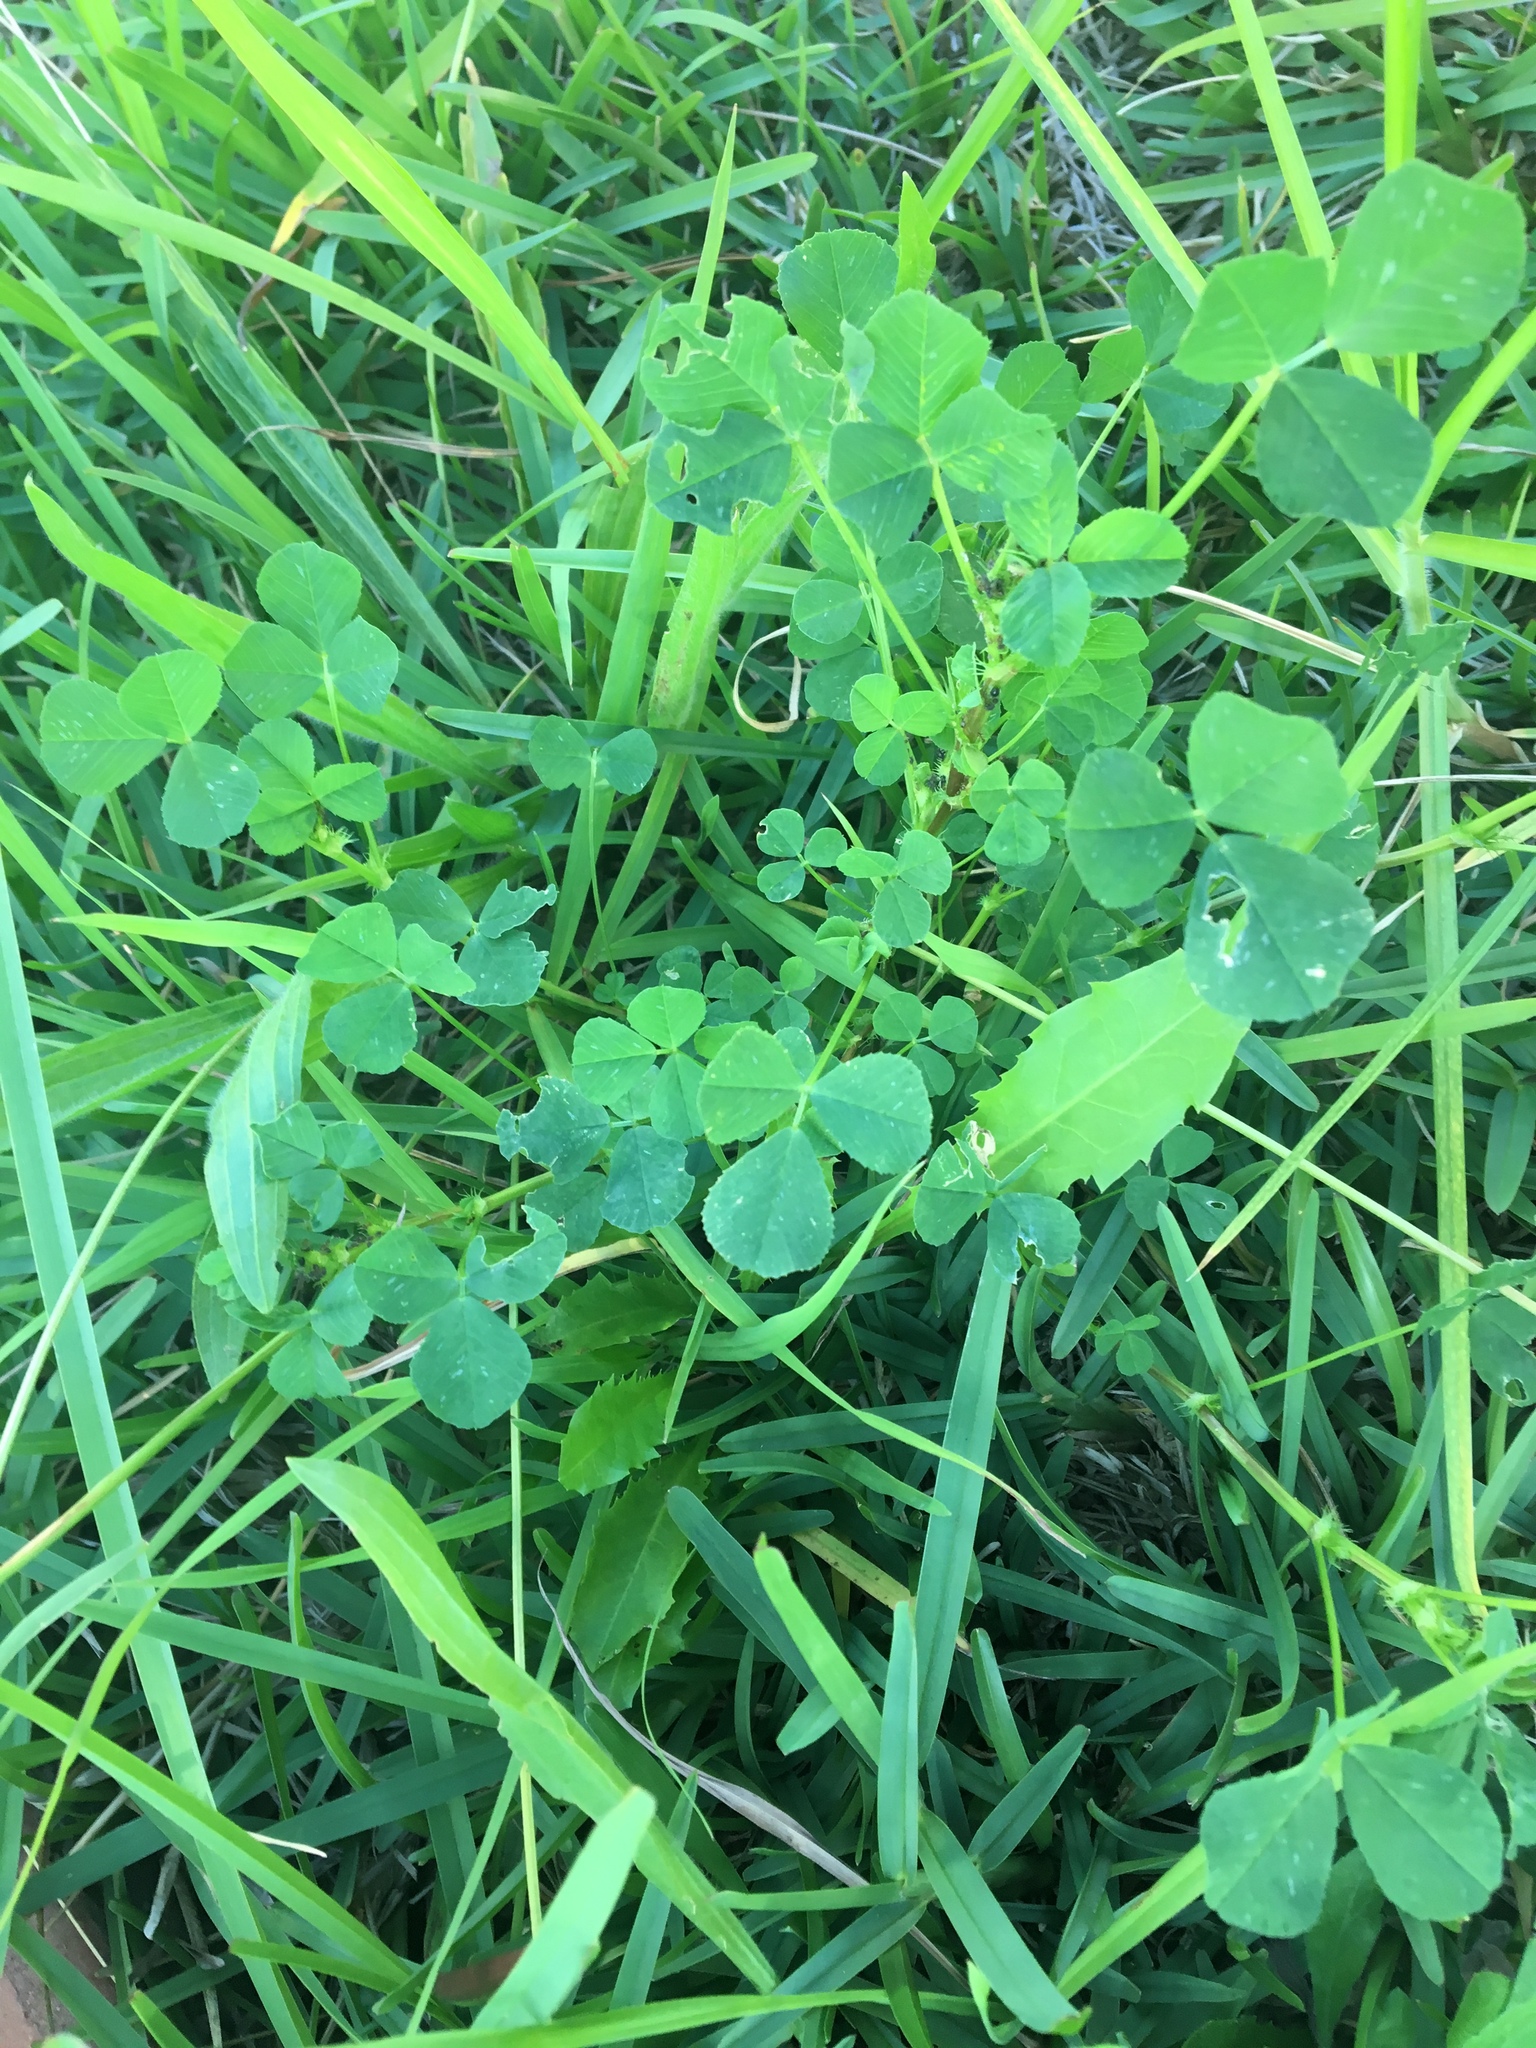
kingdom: Plantae
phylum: Tracheophyta
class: Magnoliopsida
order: Fabales
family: Fabaceae
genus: Medicago
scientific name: Medicago polymorpha
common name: Burclover
